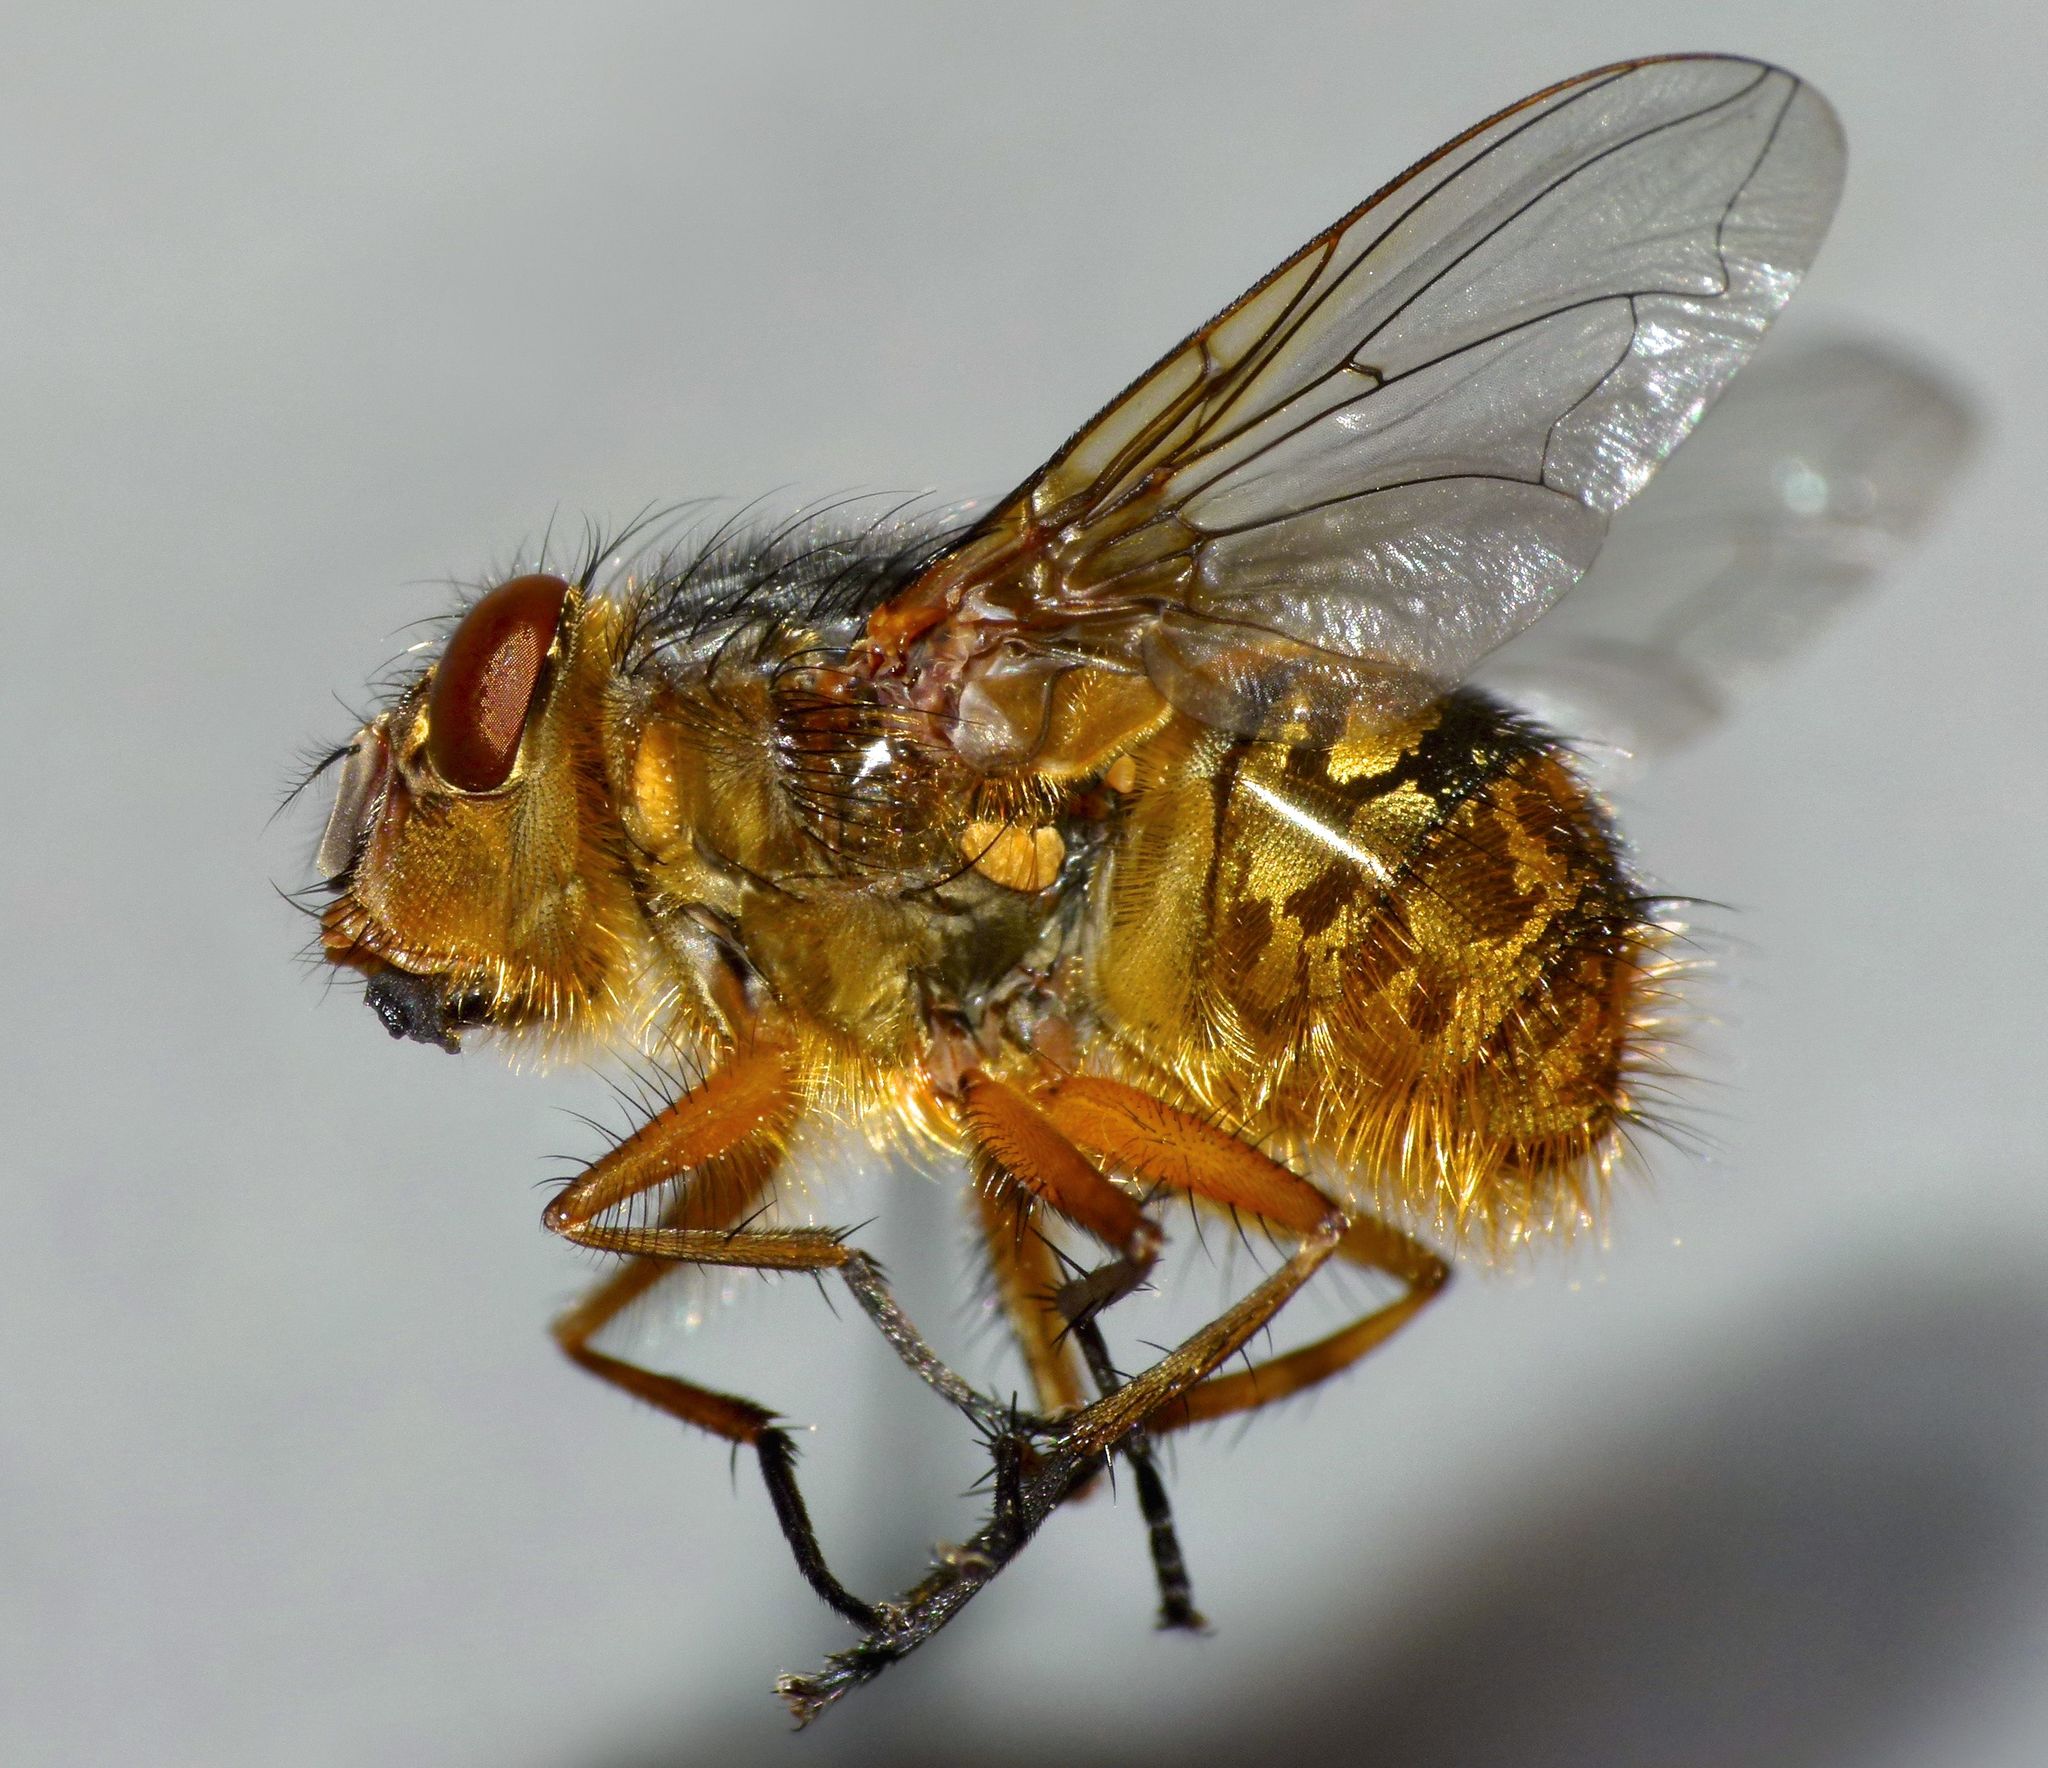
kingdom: Animalia
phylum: Arthropoda
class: Insecta
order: Diptera
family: Calliphoridae
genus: Calliphora
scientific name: Calliphora hilli
